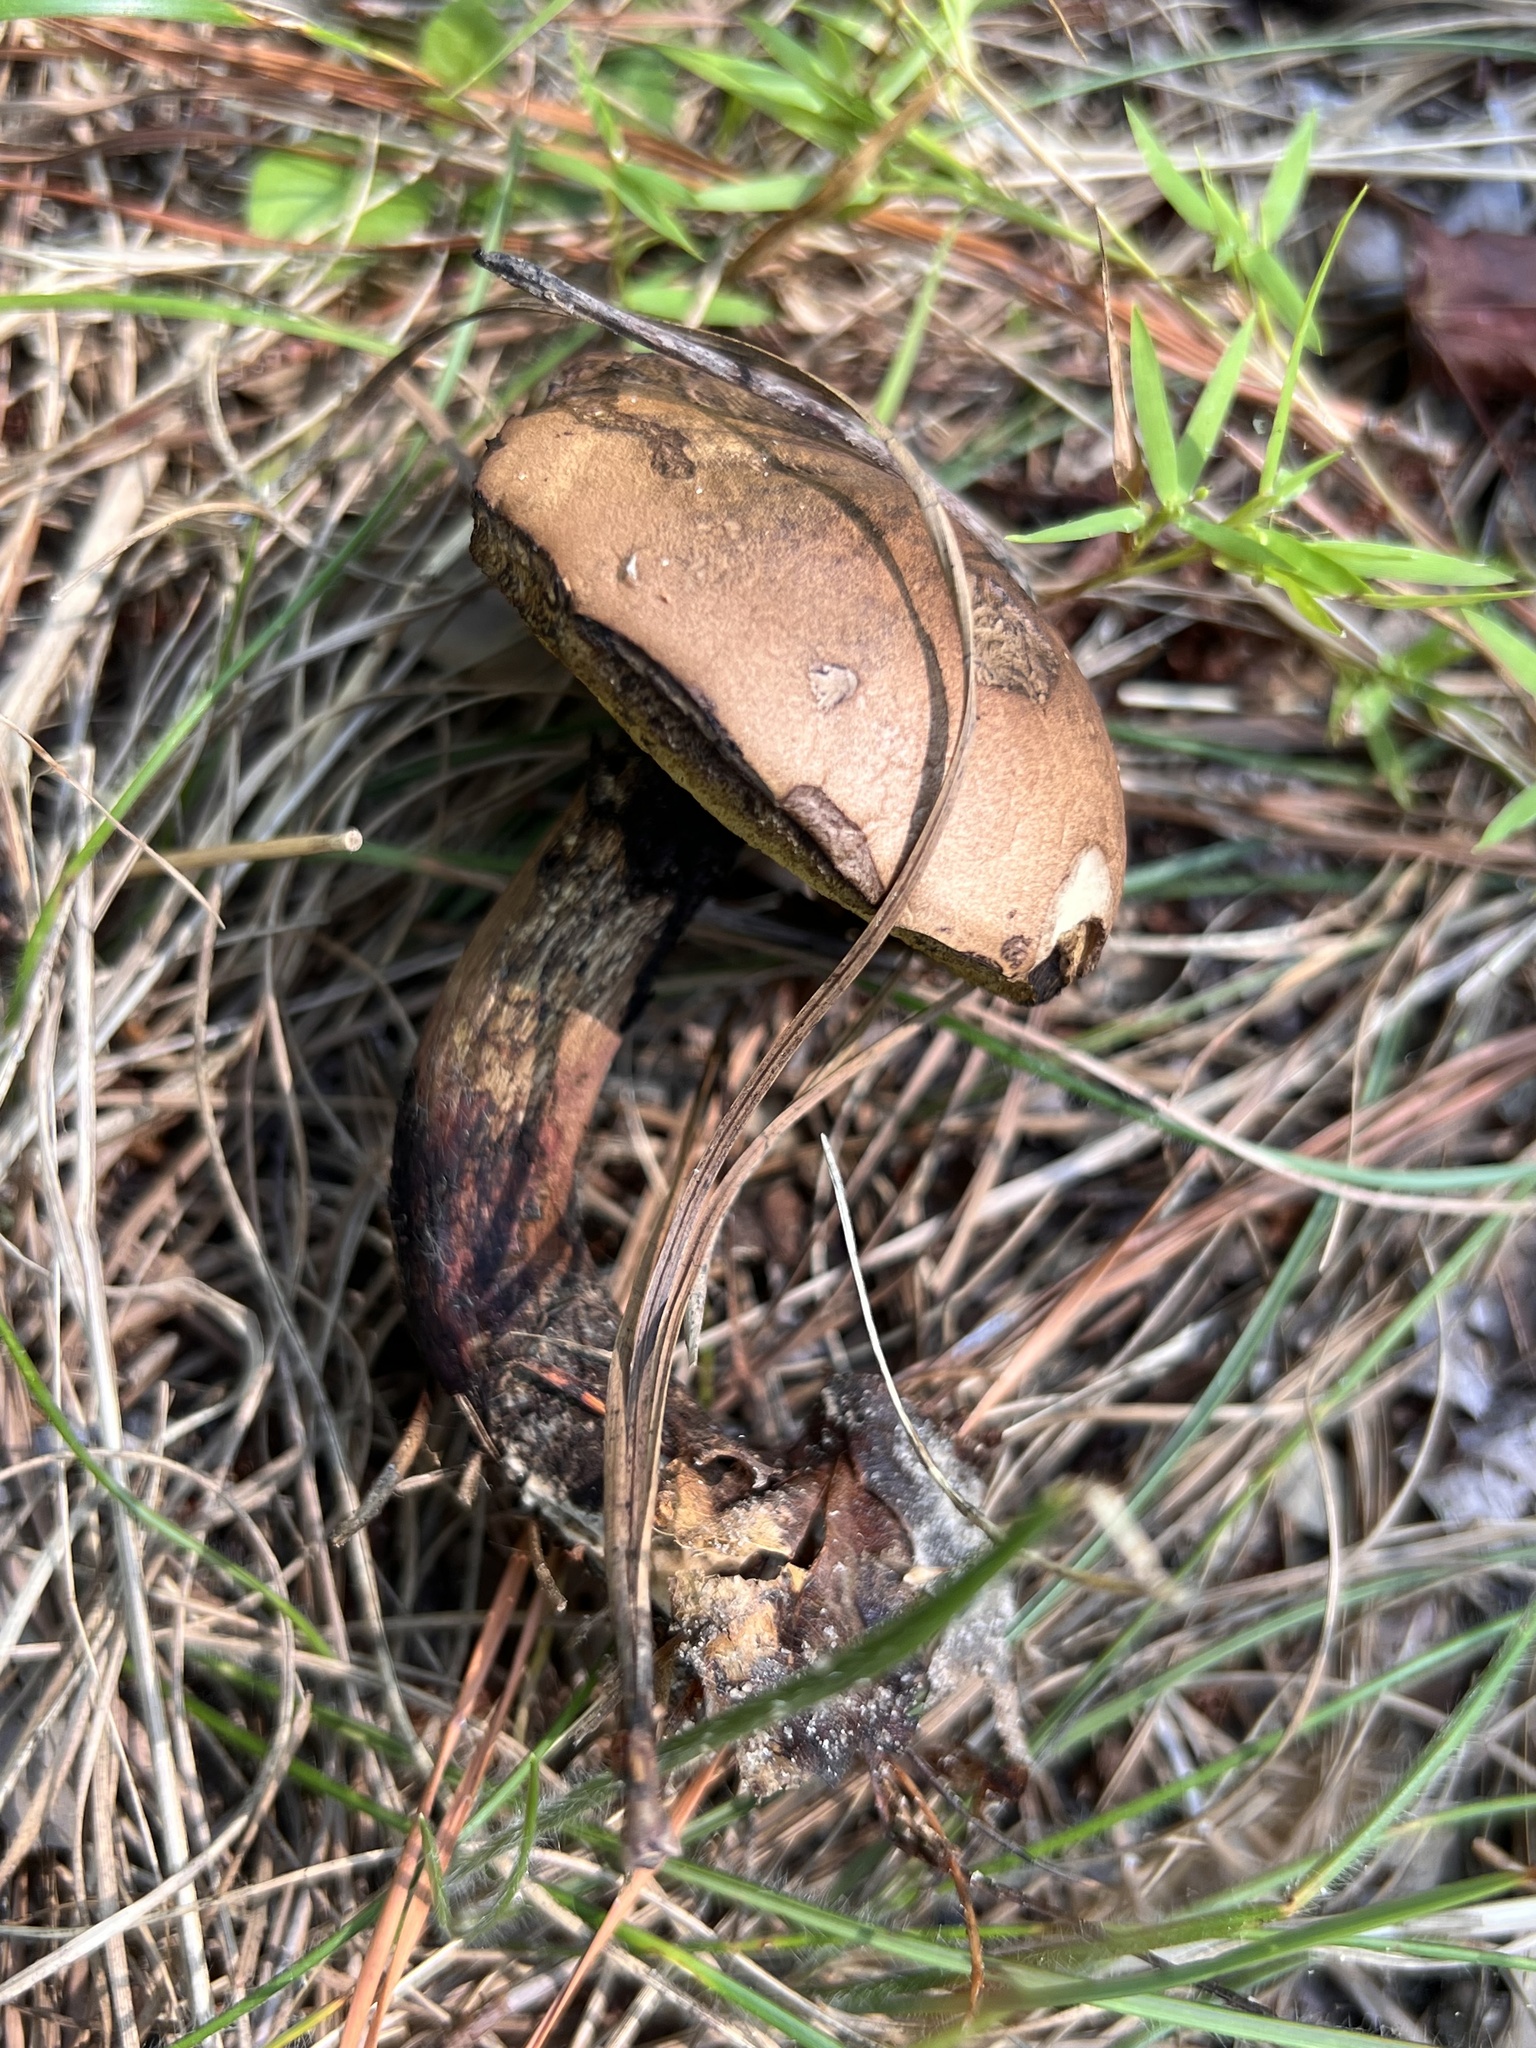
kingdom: Fungi
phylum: Basidiomycota
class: Agaricomycetes
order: Boletales
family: Boletaceae
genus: Boletus
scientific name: Boletus
